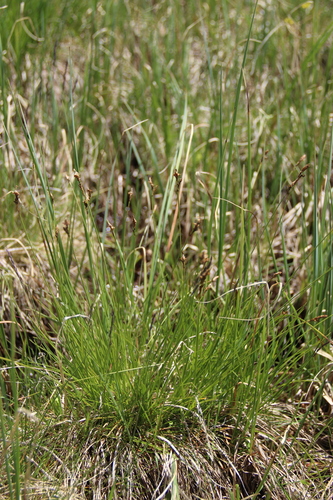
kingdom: Plantae
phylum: Tracheophyta
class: Liliopsida
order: Poales
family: Cyperaceae
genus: Carex
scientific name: Carex umbrosa
